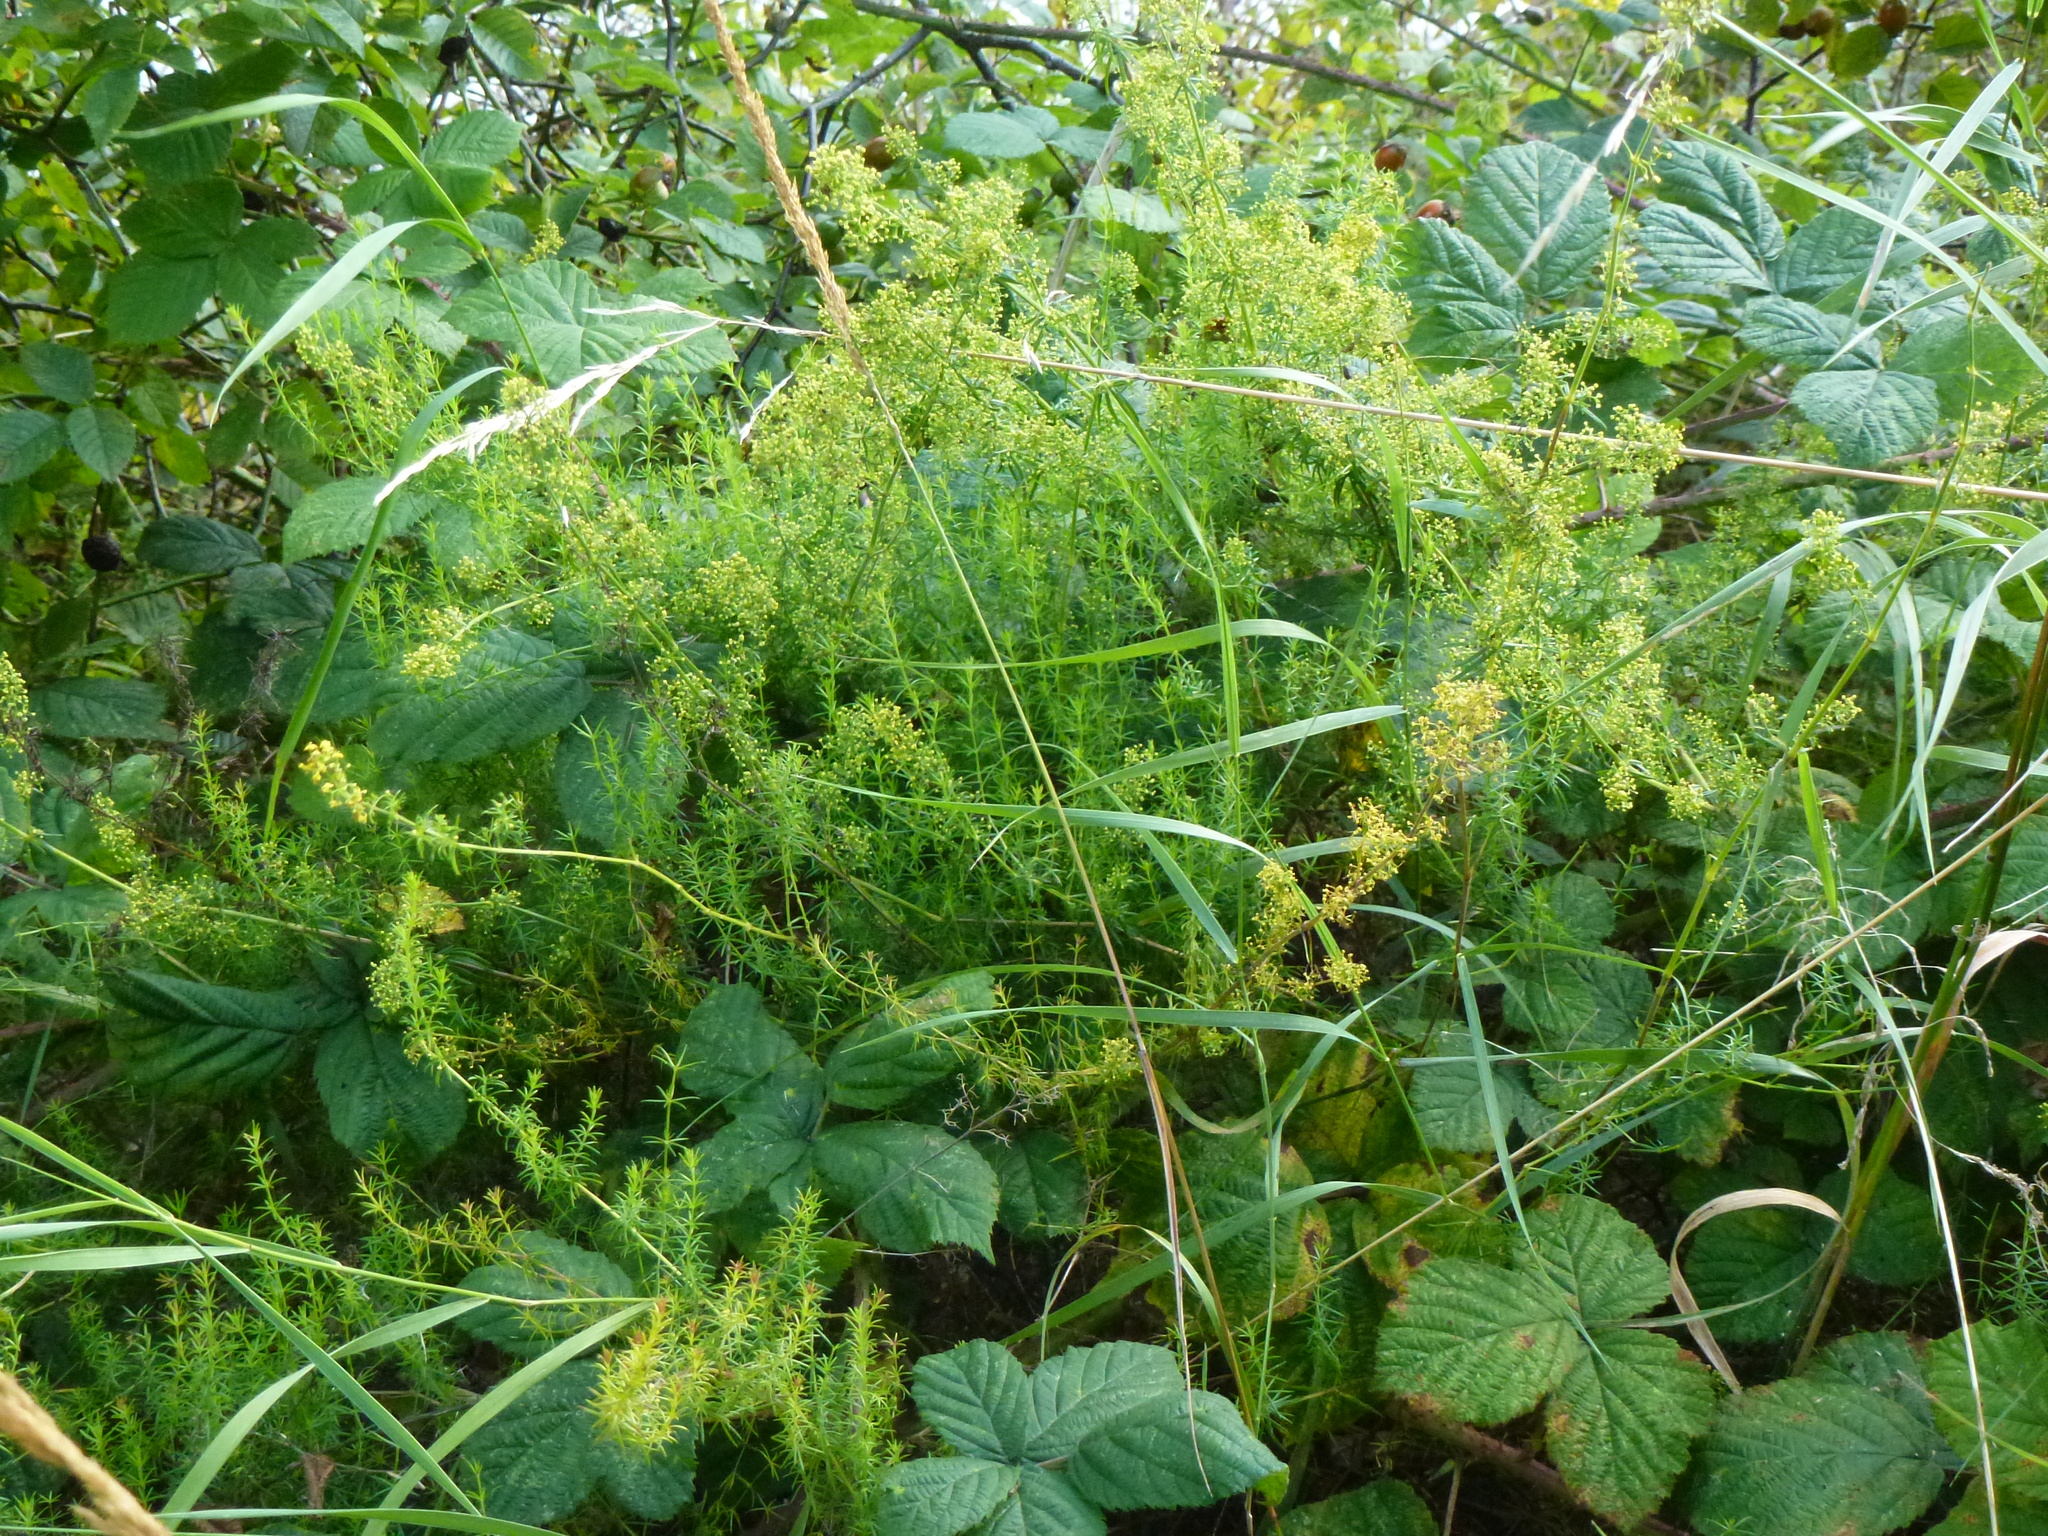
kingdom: Plantae
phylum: Tracheophyta
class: Magnoliopsida
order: Gentianales
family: Rubiaceae
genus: Galium
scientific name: Galium verum
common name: Lady's bedstraw
